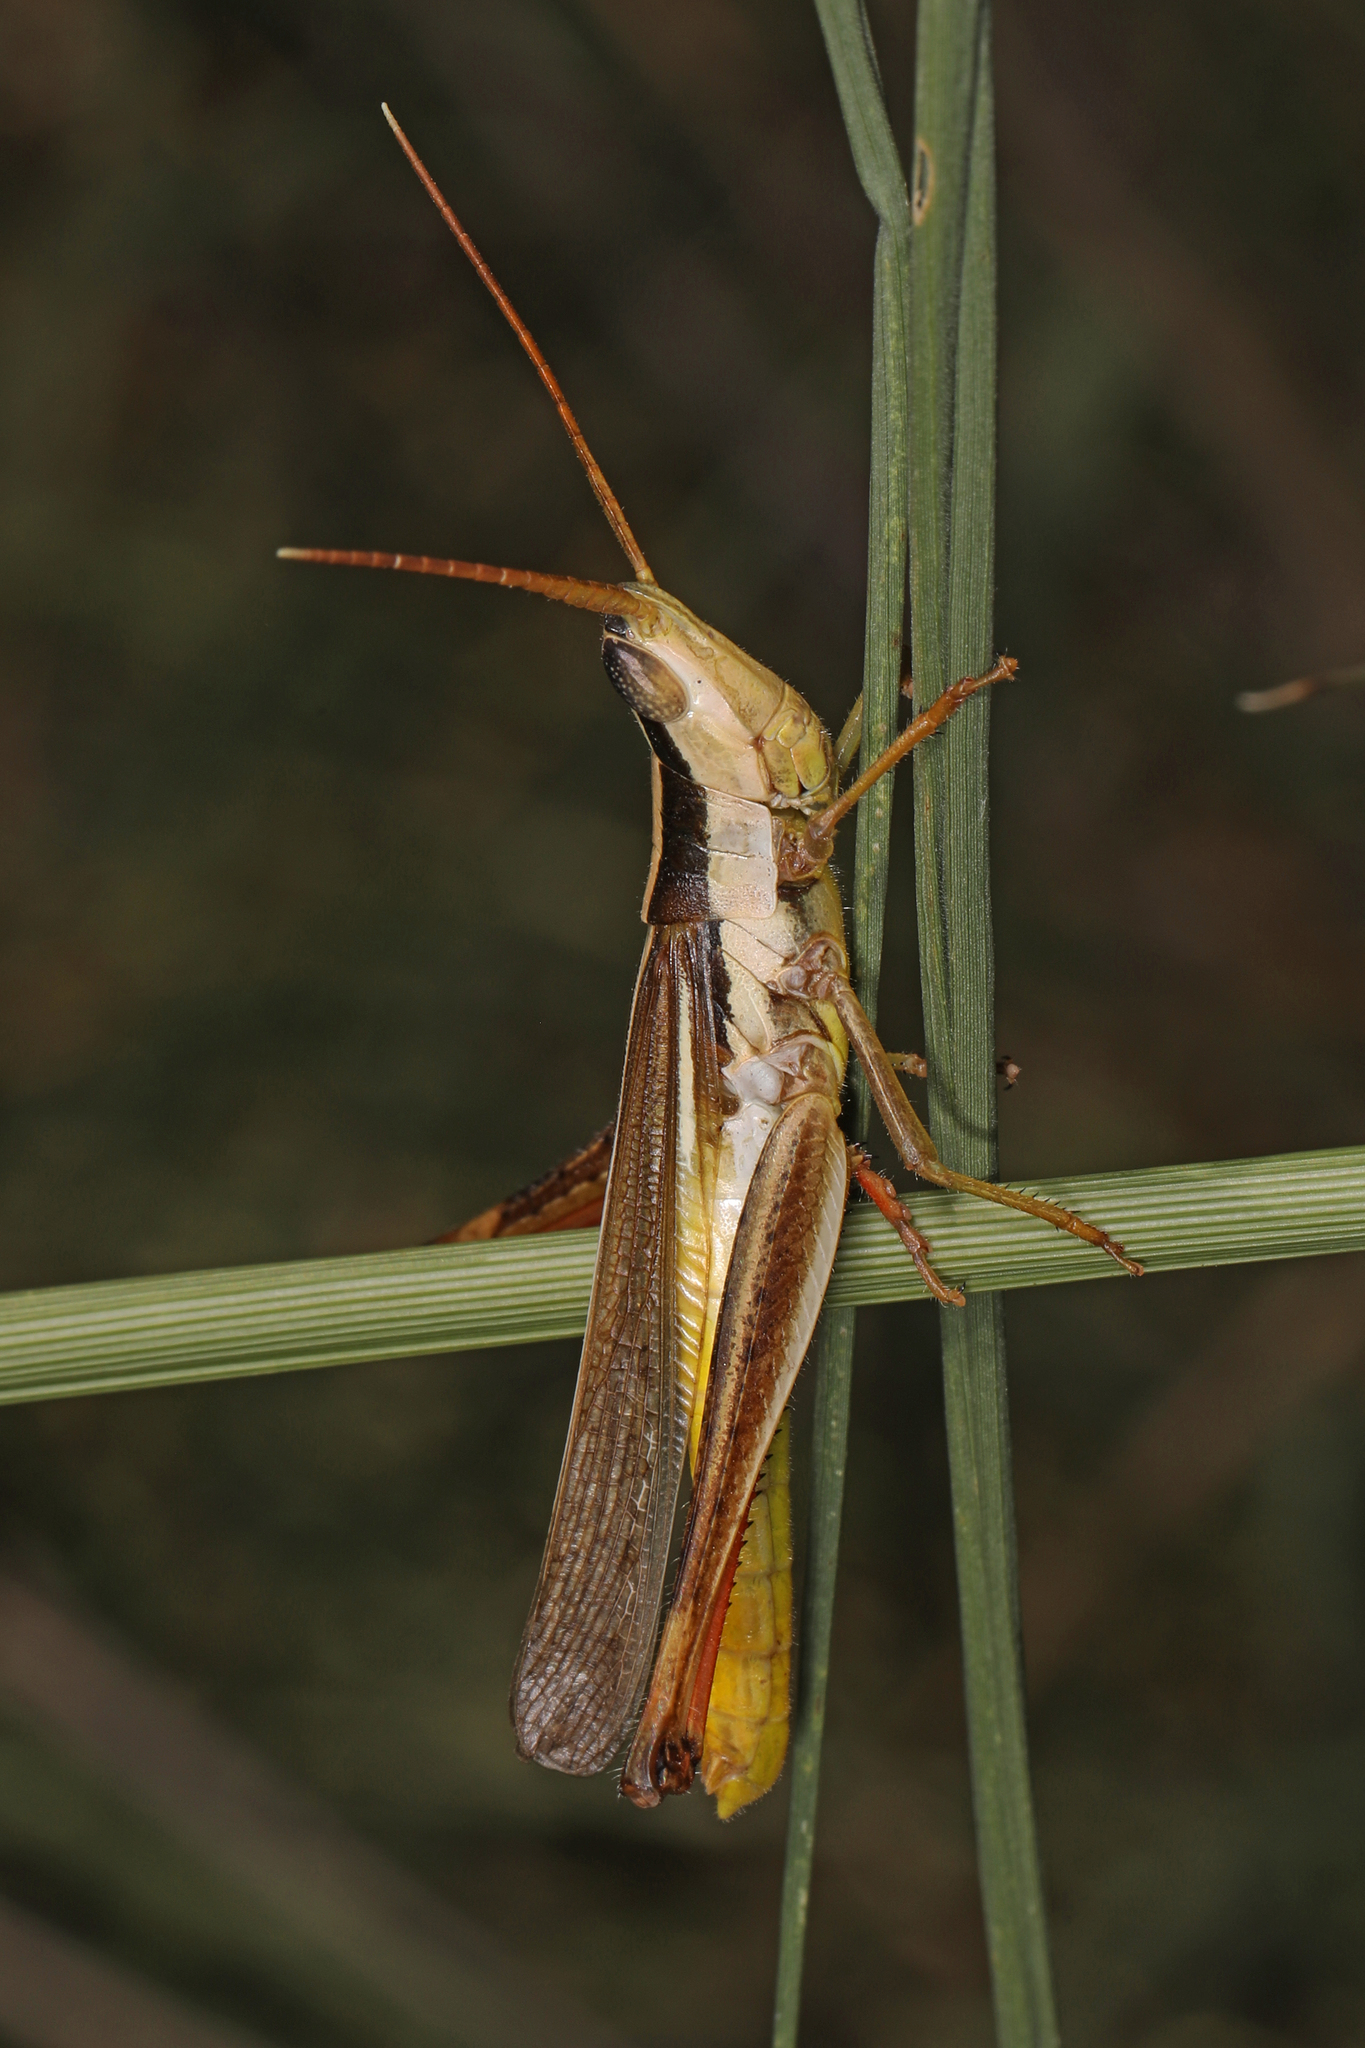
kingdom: Animalia
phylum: Arthropoda
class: Insecta
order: Orthoptera
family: Acrididae
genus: Mermiria
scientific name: Mermiria bivittata
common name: Two-striped mermiria grasshopper
